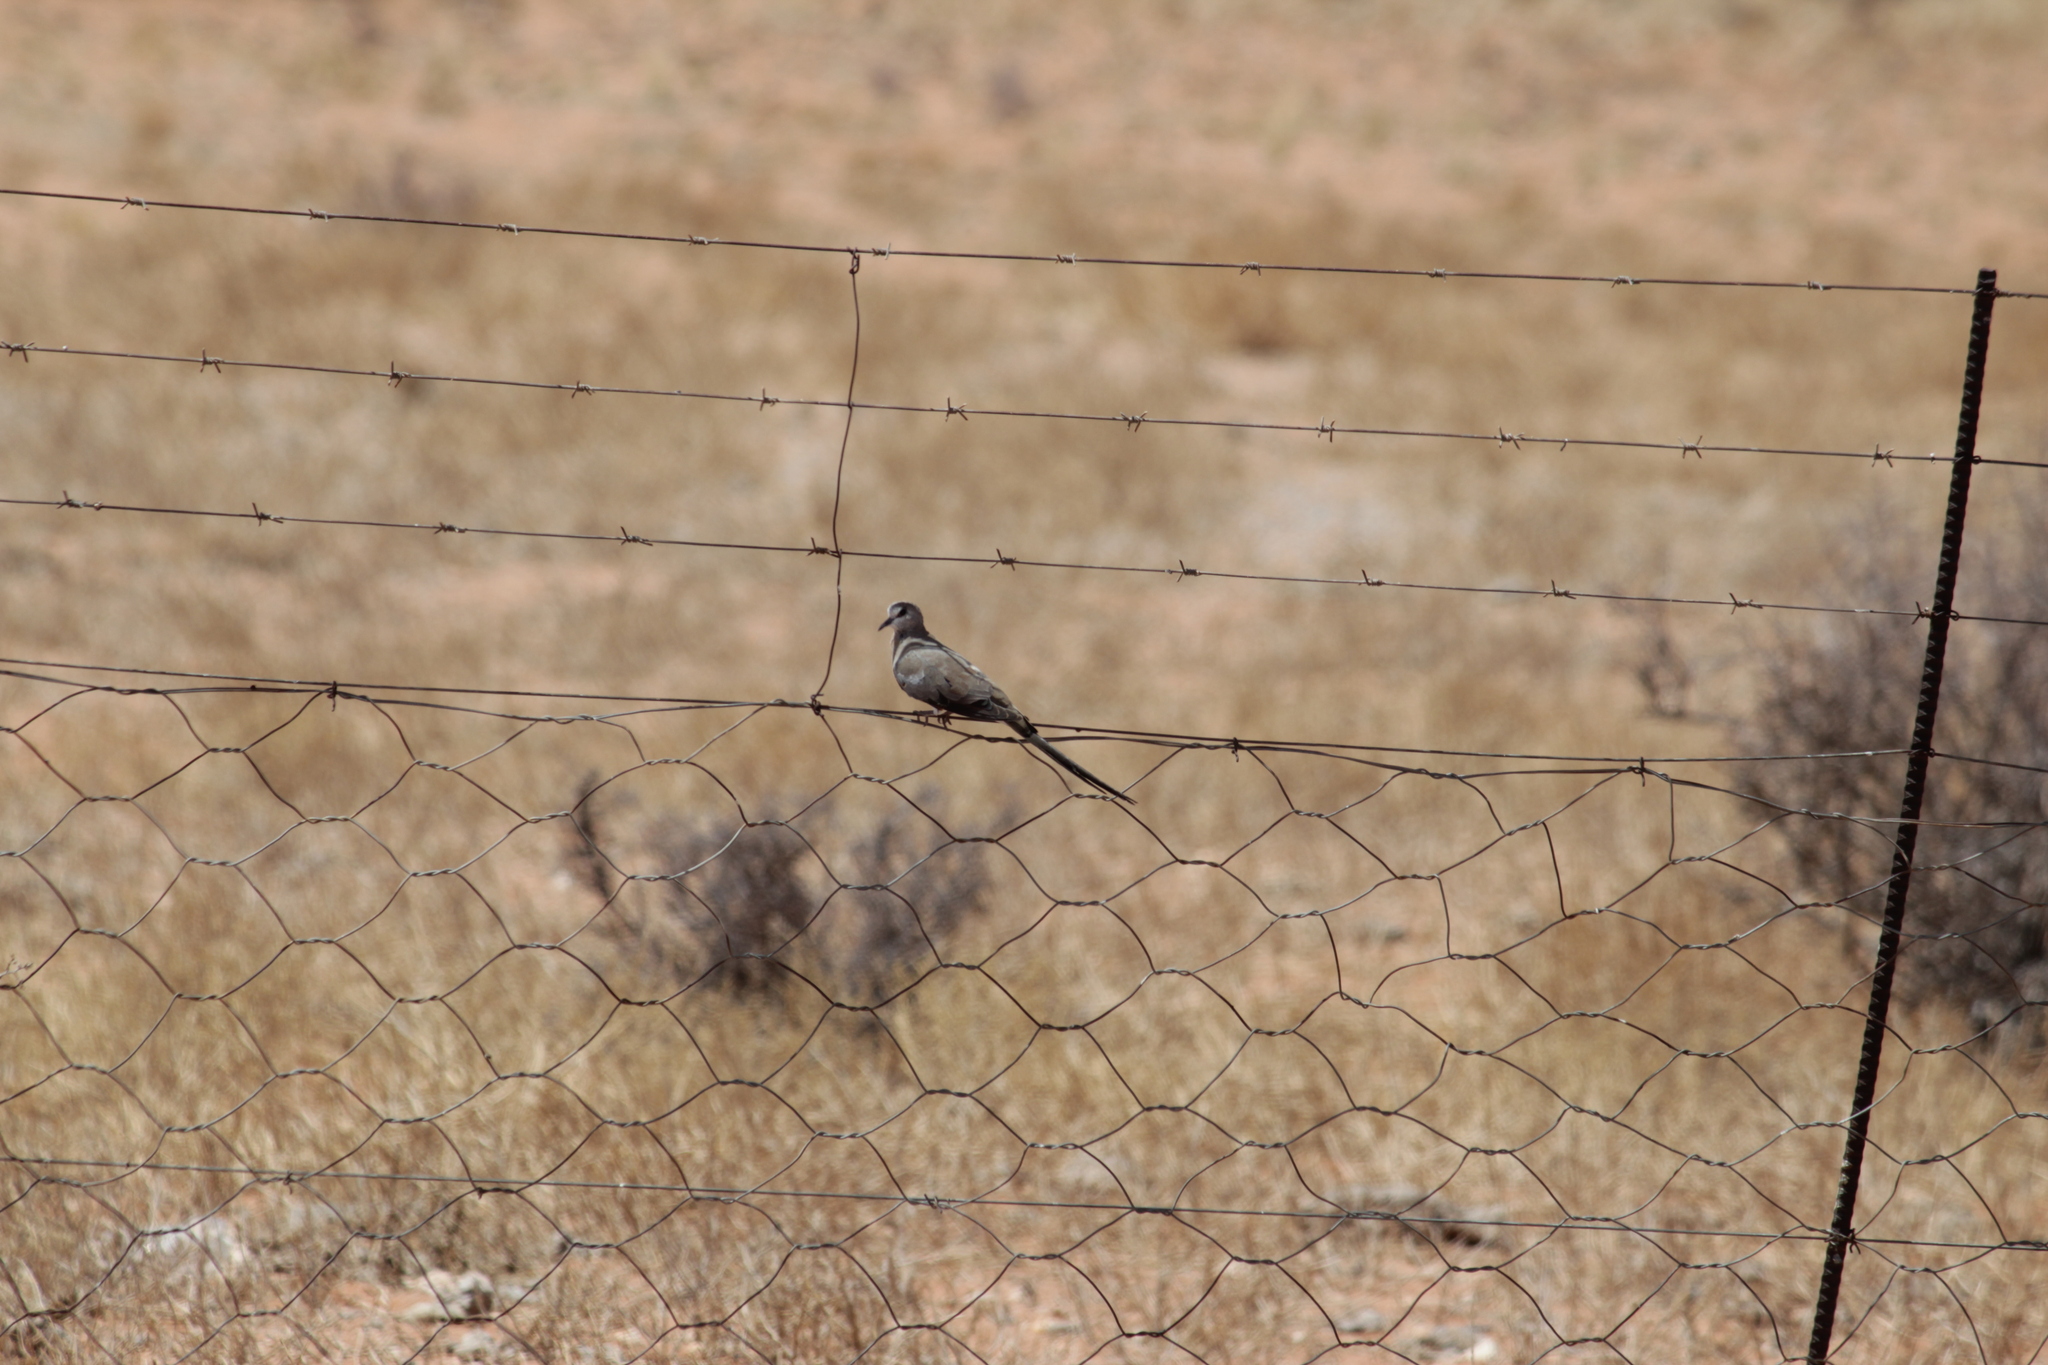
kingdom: Animalia
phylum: Chordata
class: Aves
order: Columbiformes
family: Columbidae
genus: Oena
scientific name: Oena capensis
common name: Namaqua dove
